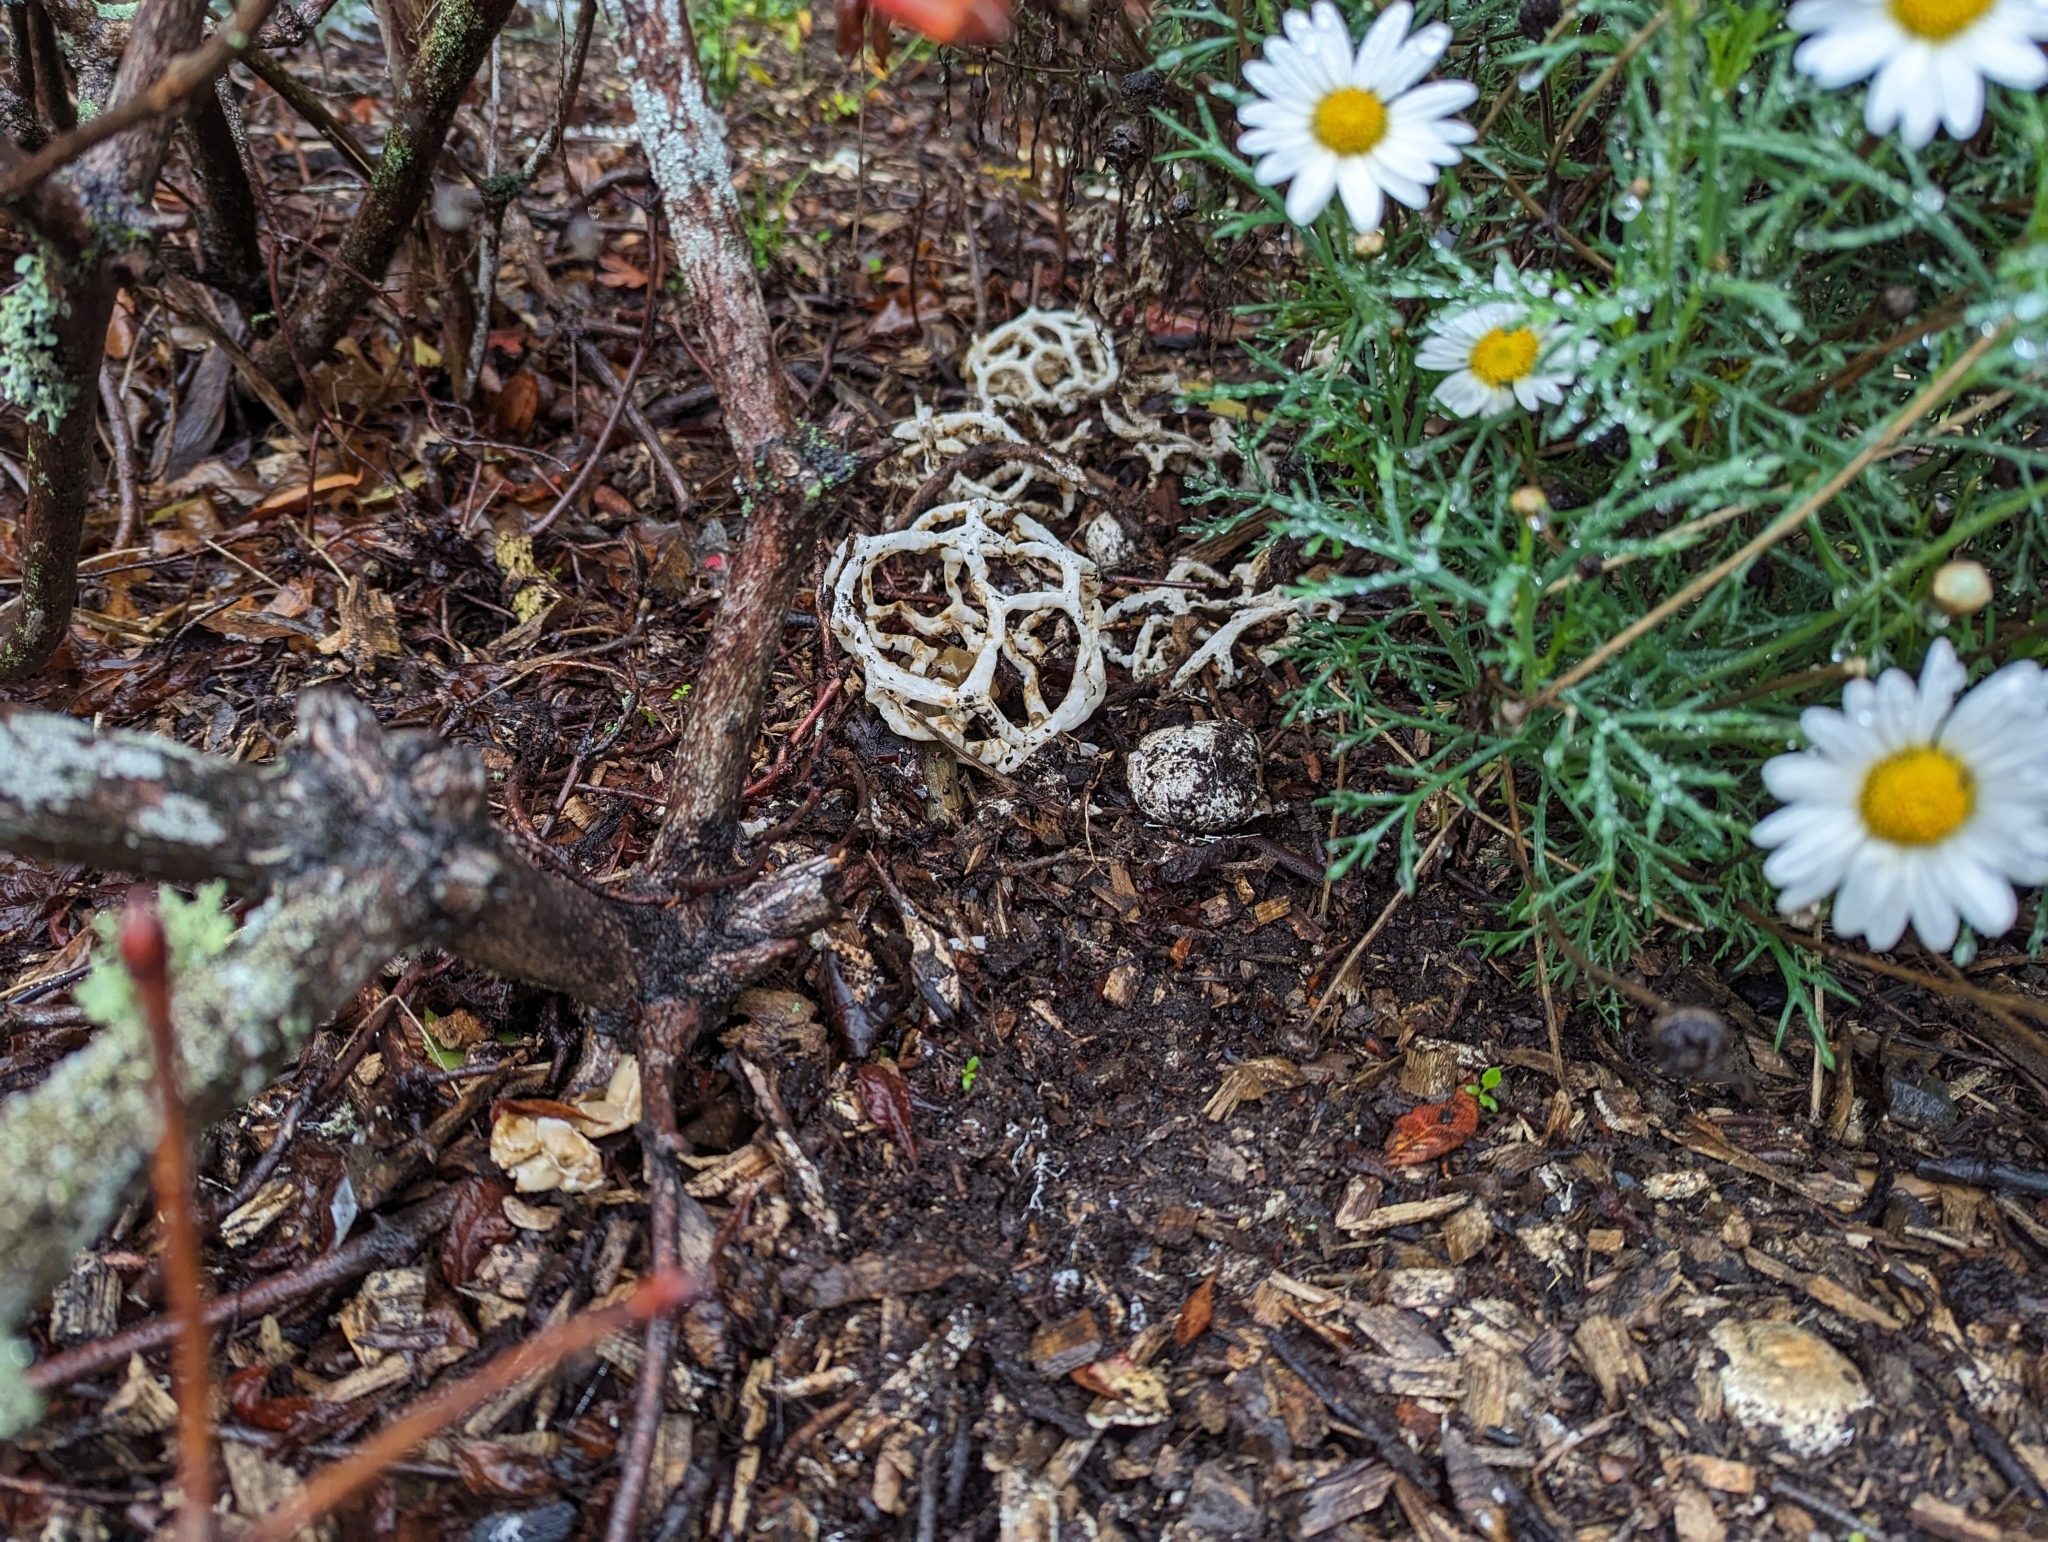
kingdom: Fungi
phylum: Basidiomycota
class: Agaricomycetes
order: Phallales
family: Phallaceae
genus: Ileodictyon
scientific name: Ileodictyon cibarium
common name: Basket fungus
